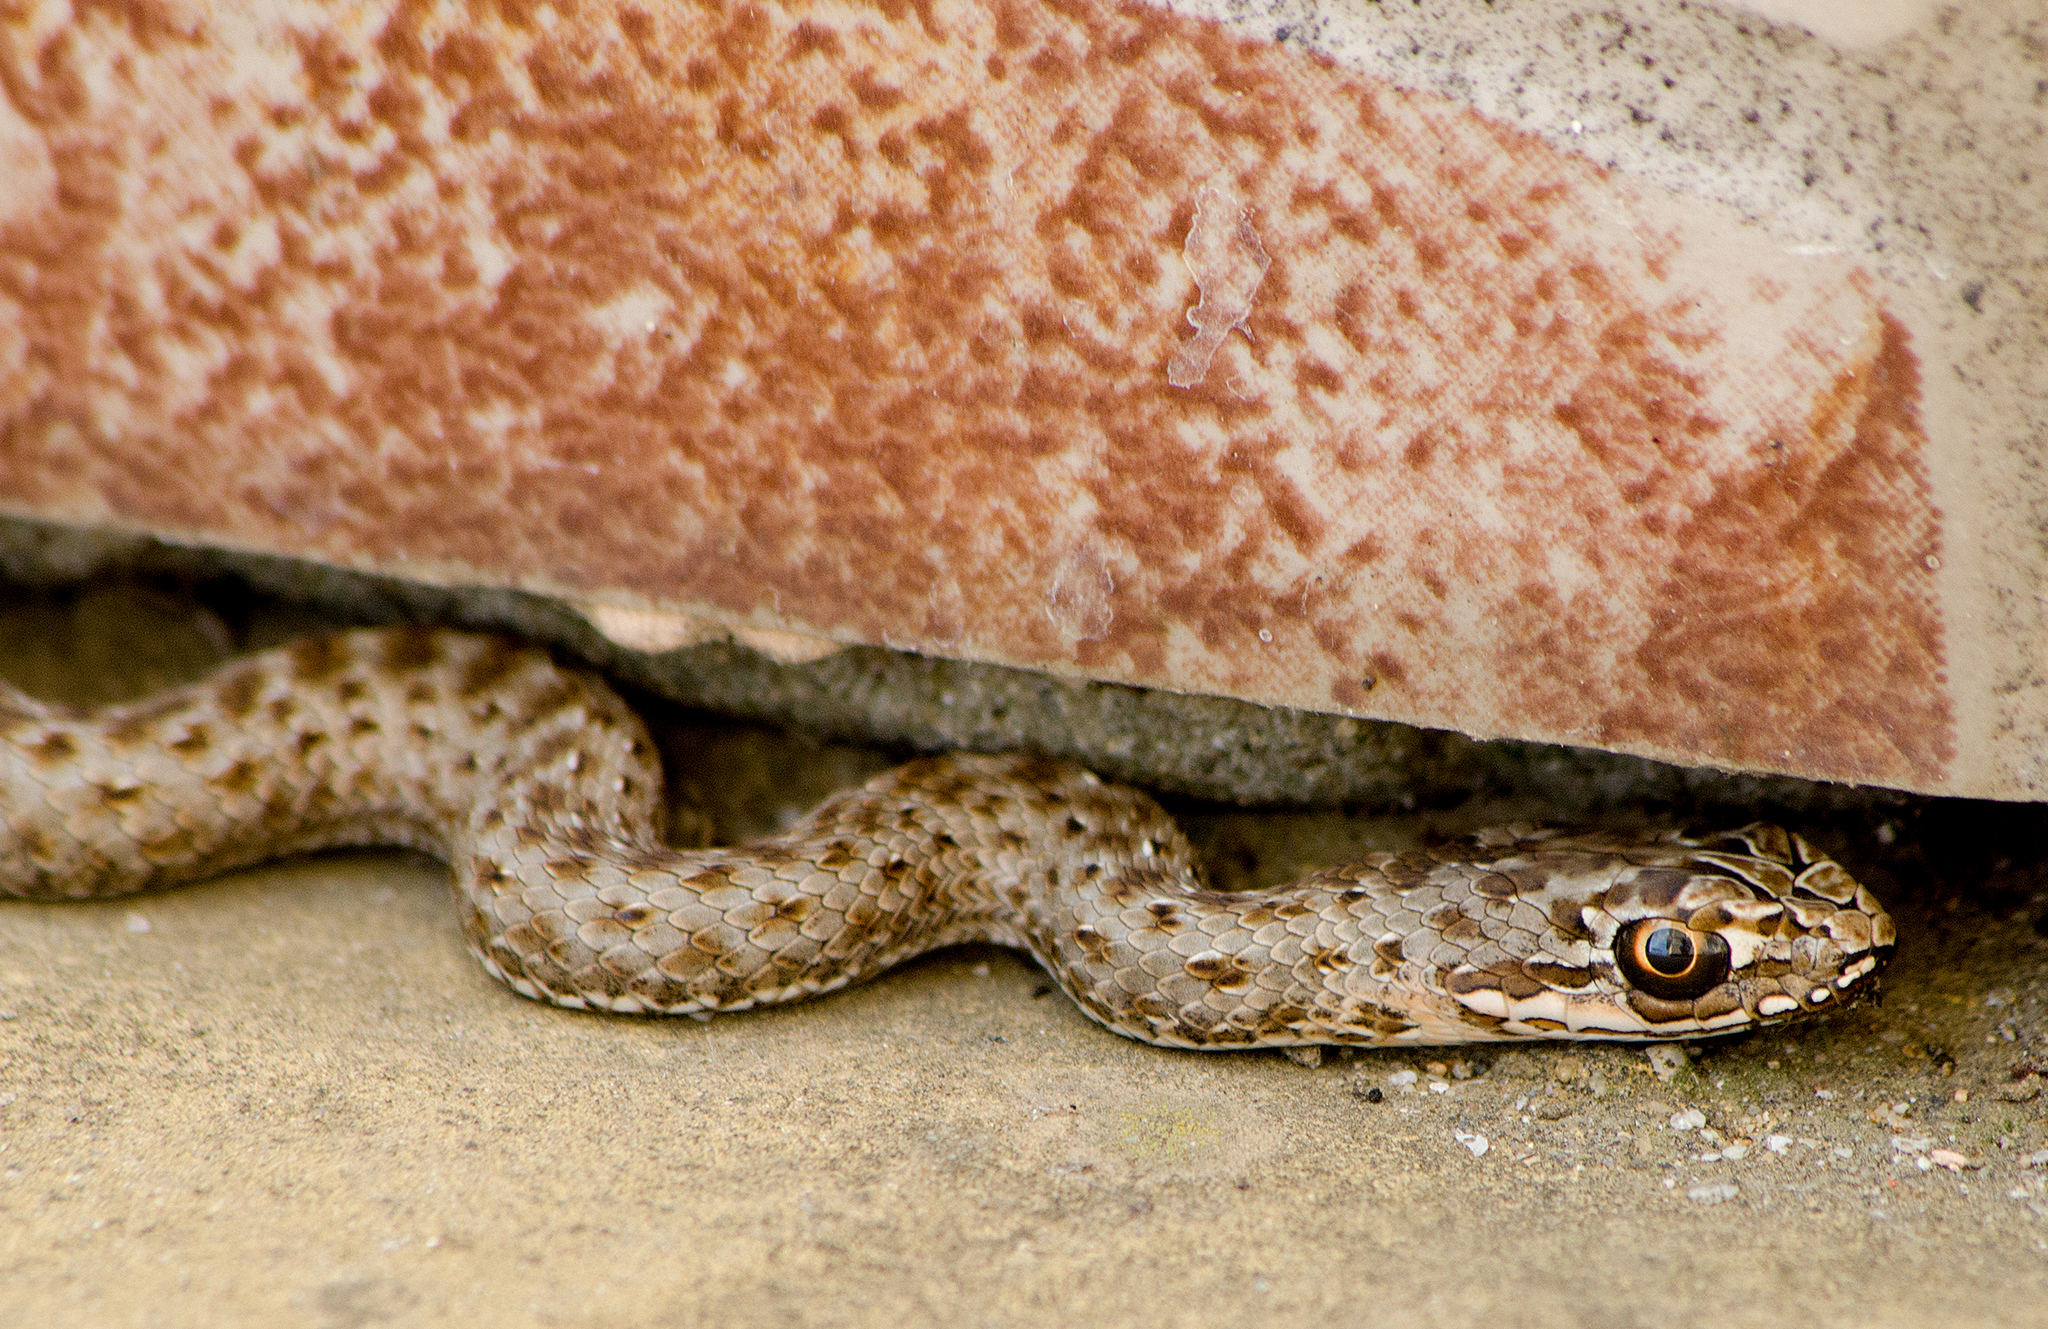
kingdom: Animalia
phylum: Chordata
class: Squamata
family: Psammophiidae
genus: Malpolon
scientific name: Malpolon insignitus
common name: Eastern montpellier snake
